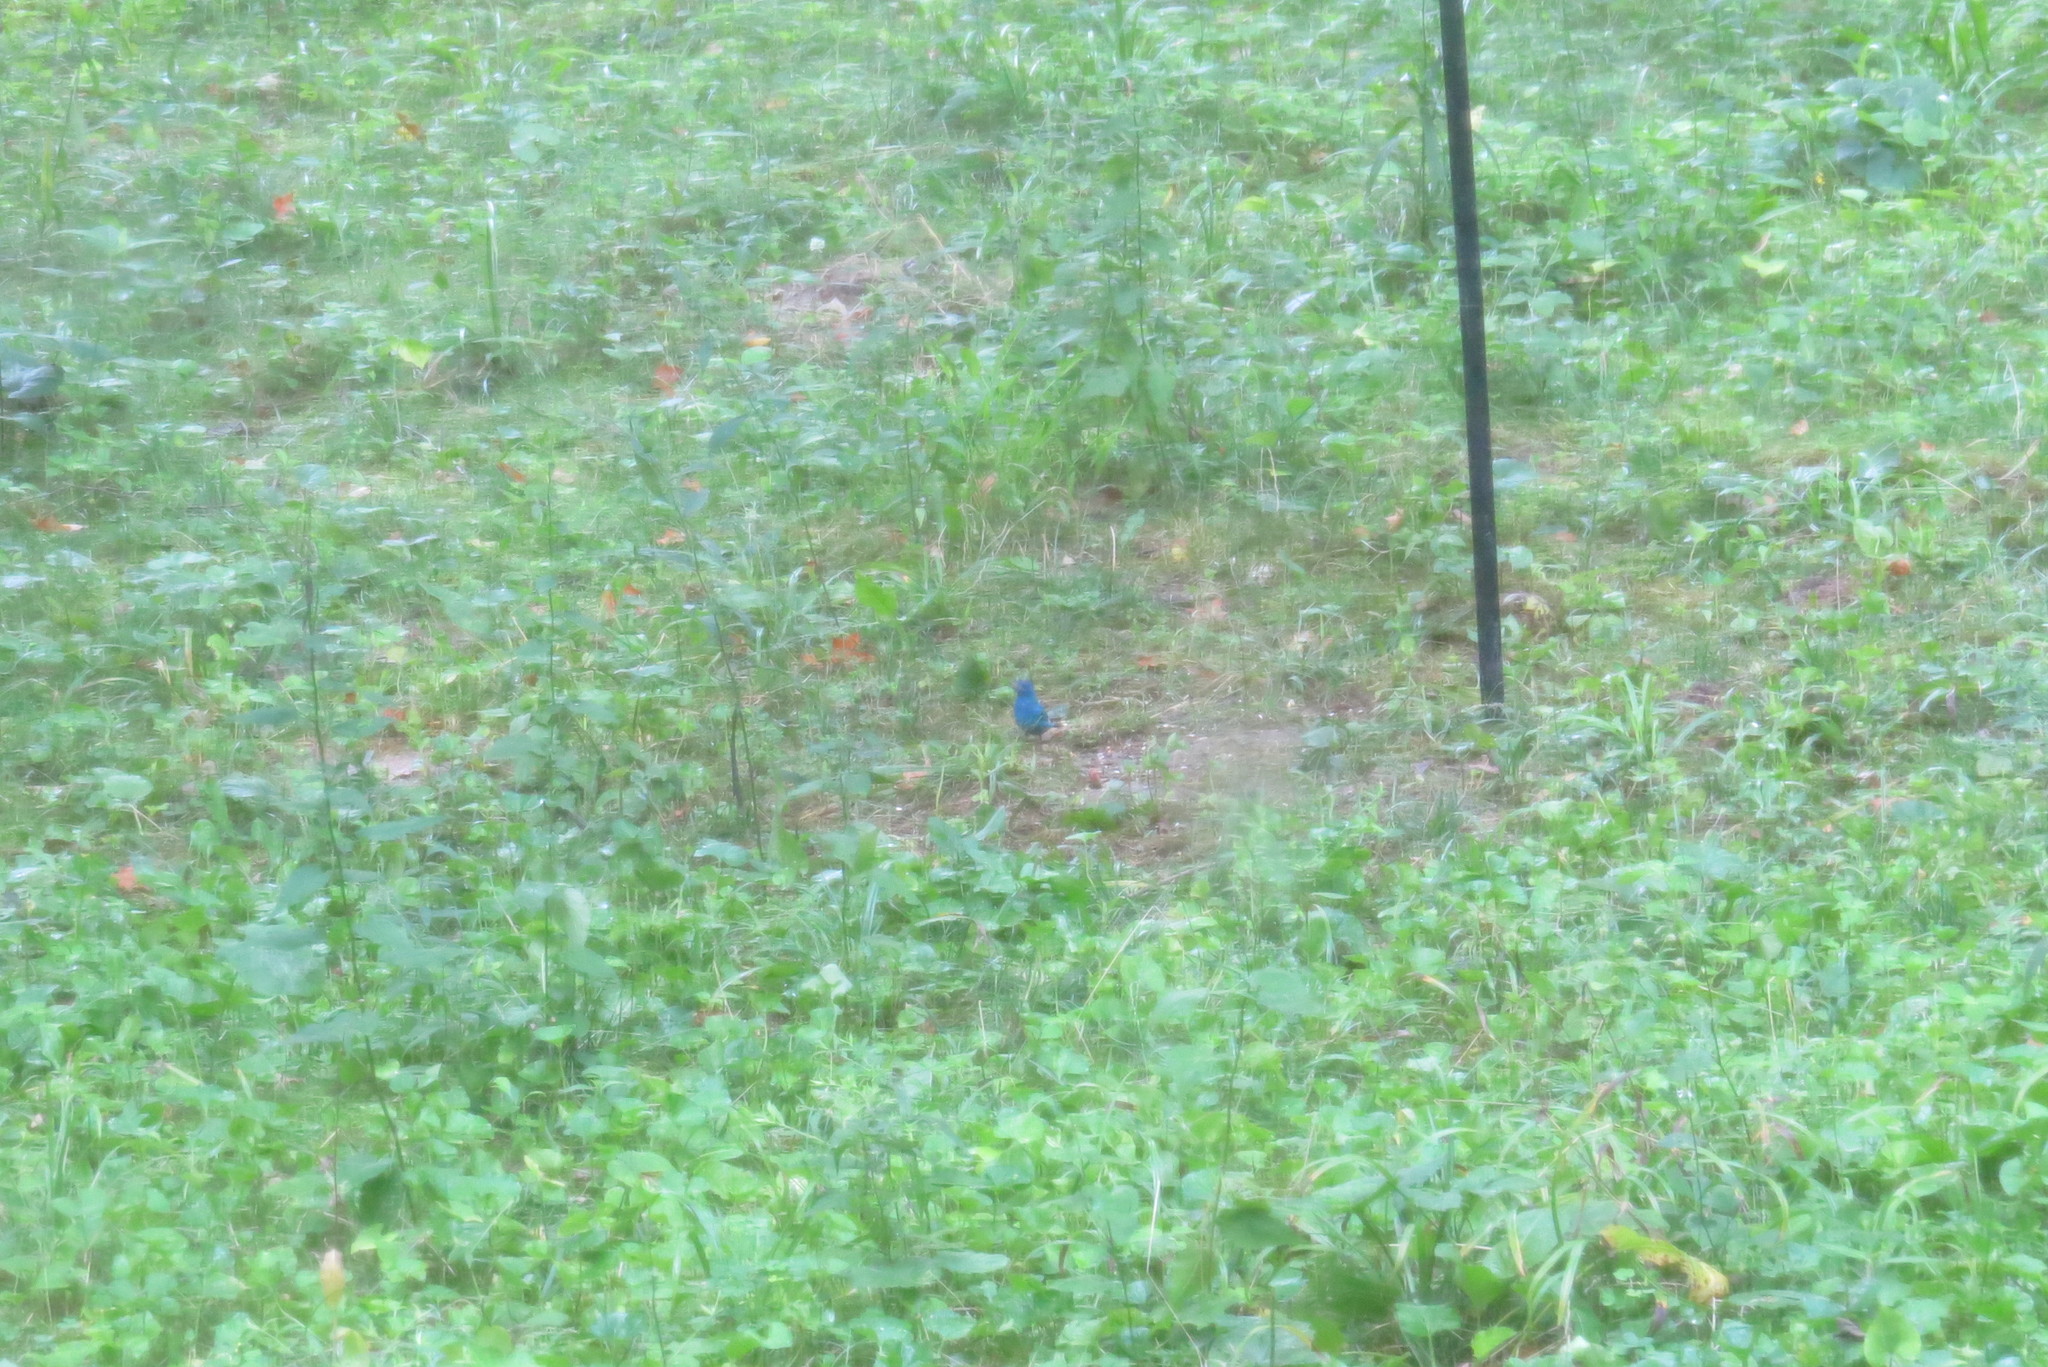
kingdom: Animalia
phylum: Chordata
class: Aves
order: Passeriformes
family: Cardinalidae
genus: Passerina
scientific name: Passerina cyanea
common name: Indigo bunting
